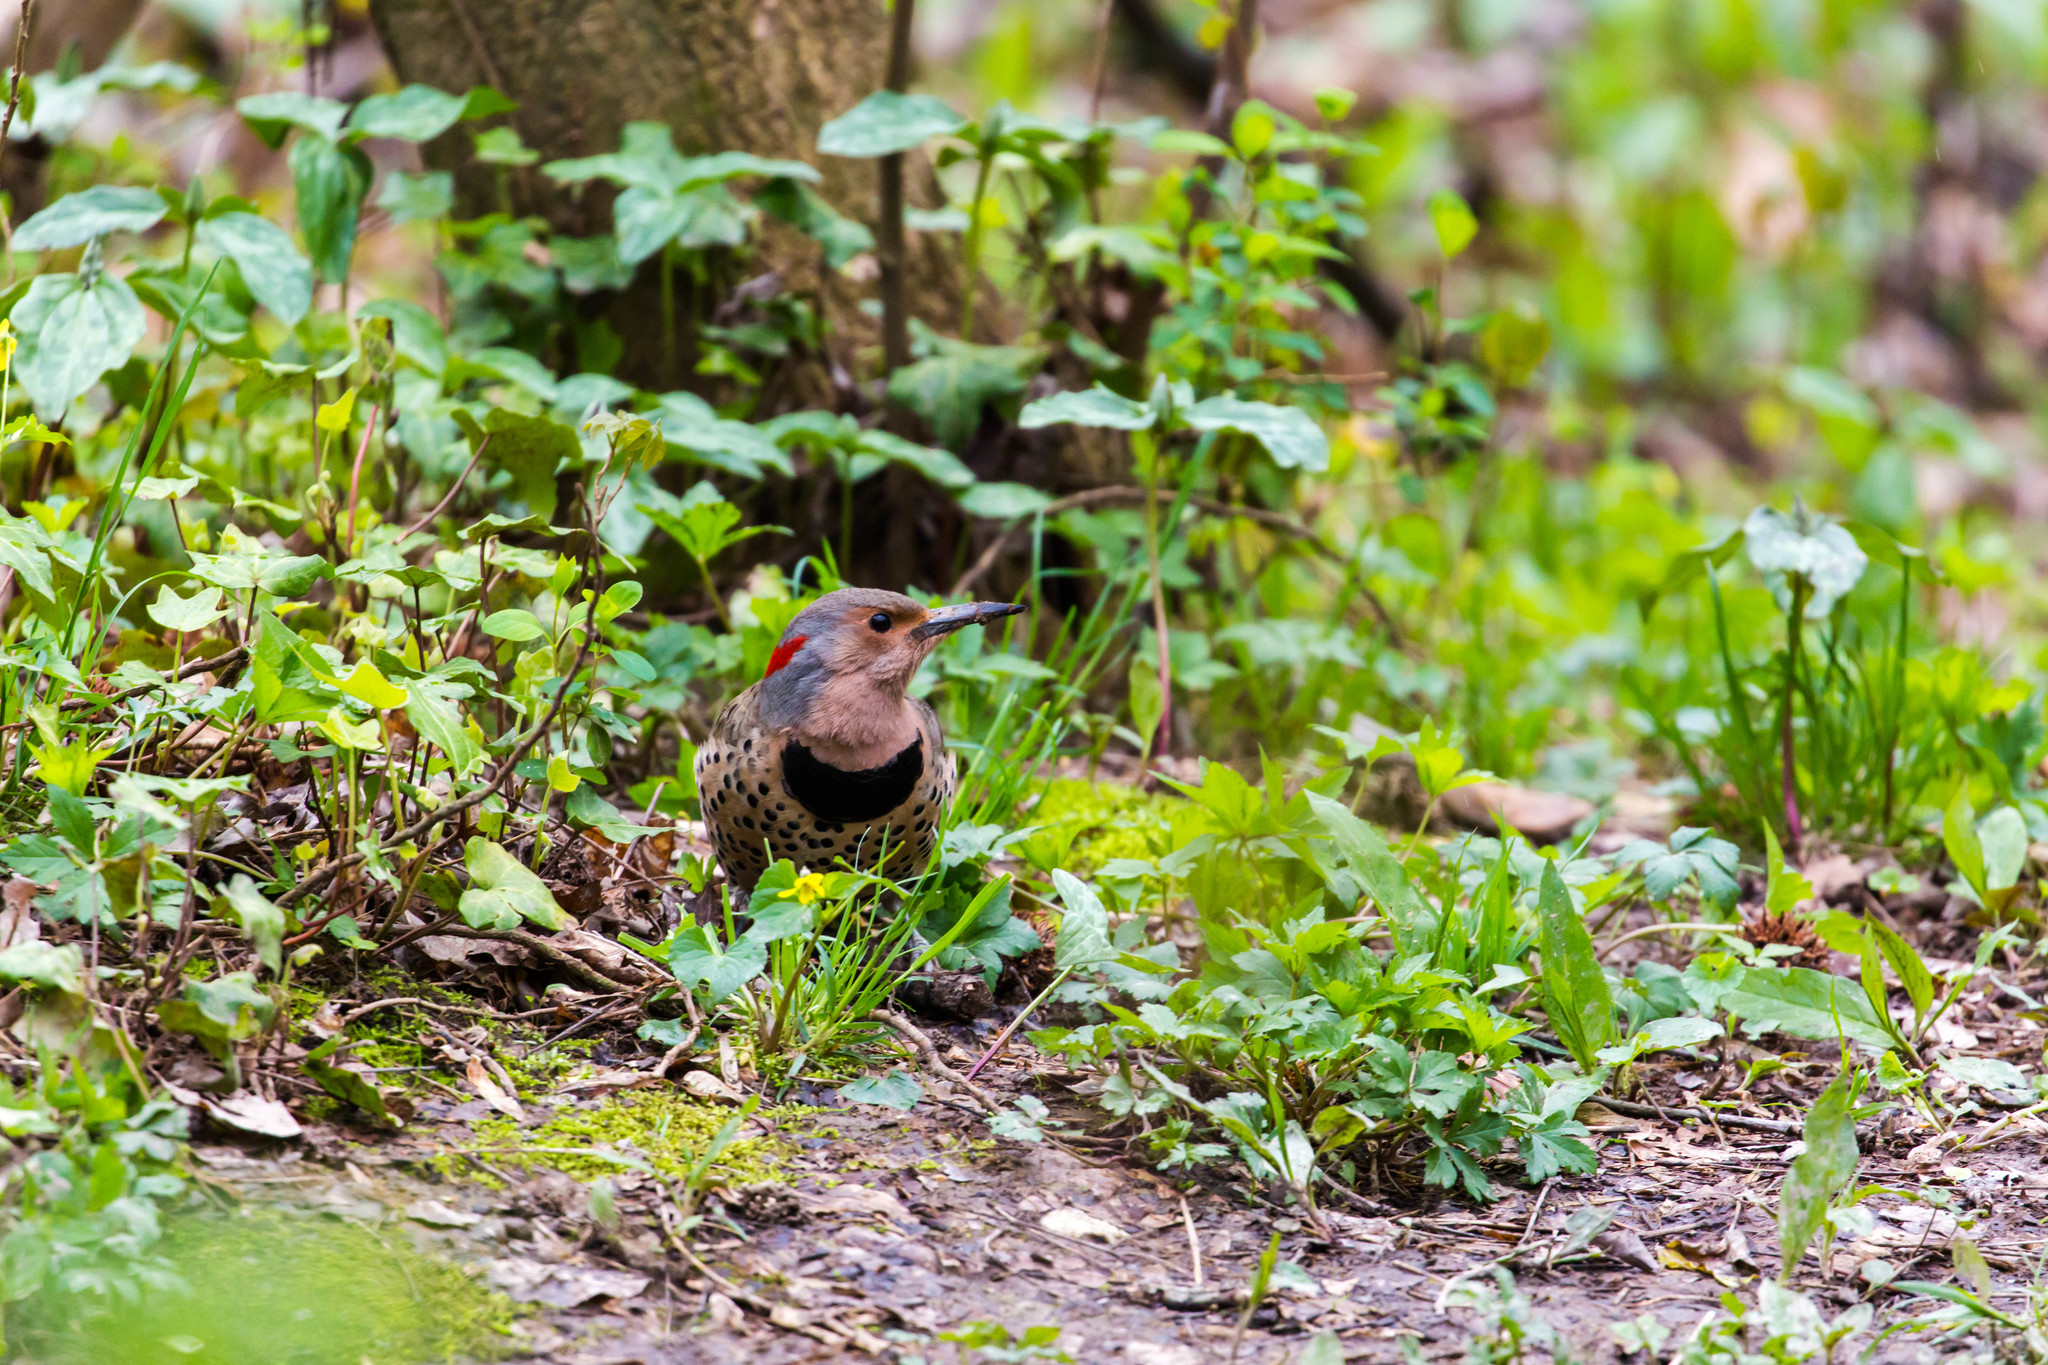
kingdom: Animalia
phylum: Chordata
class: Aves
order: Piciformes
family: Picidae
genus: Colaptes
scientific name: Colaptes auratus
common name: Northern flicker
